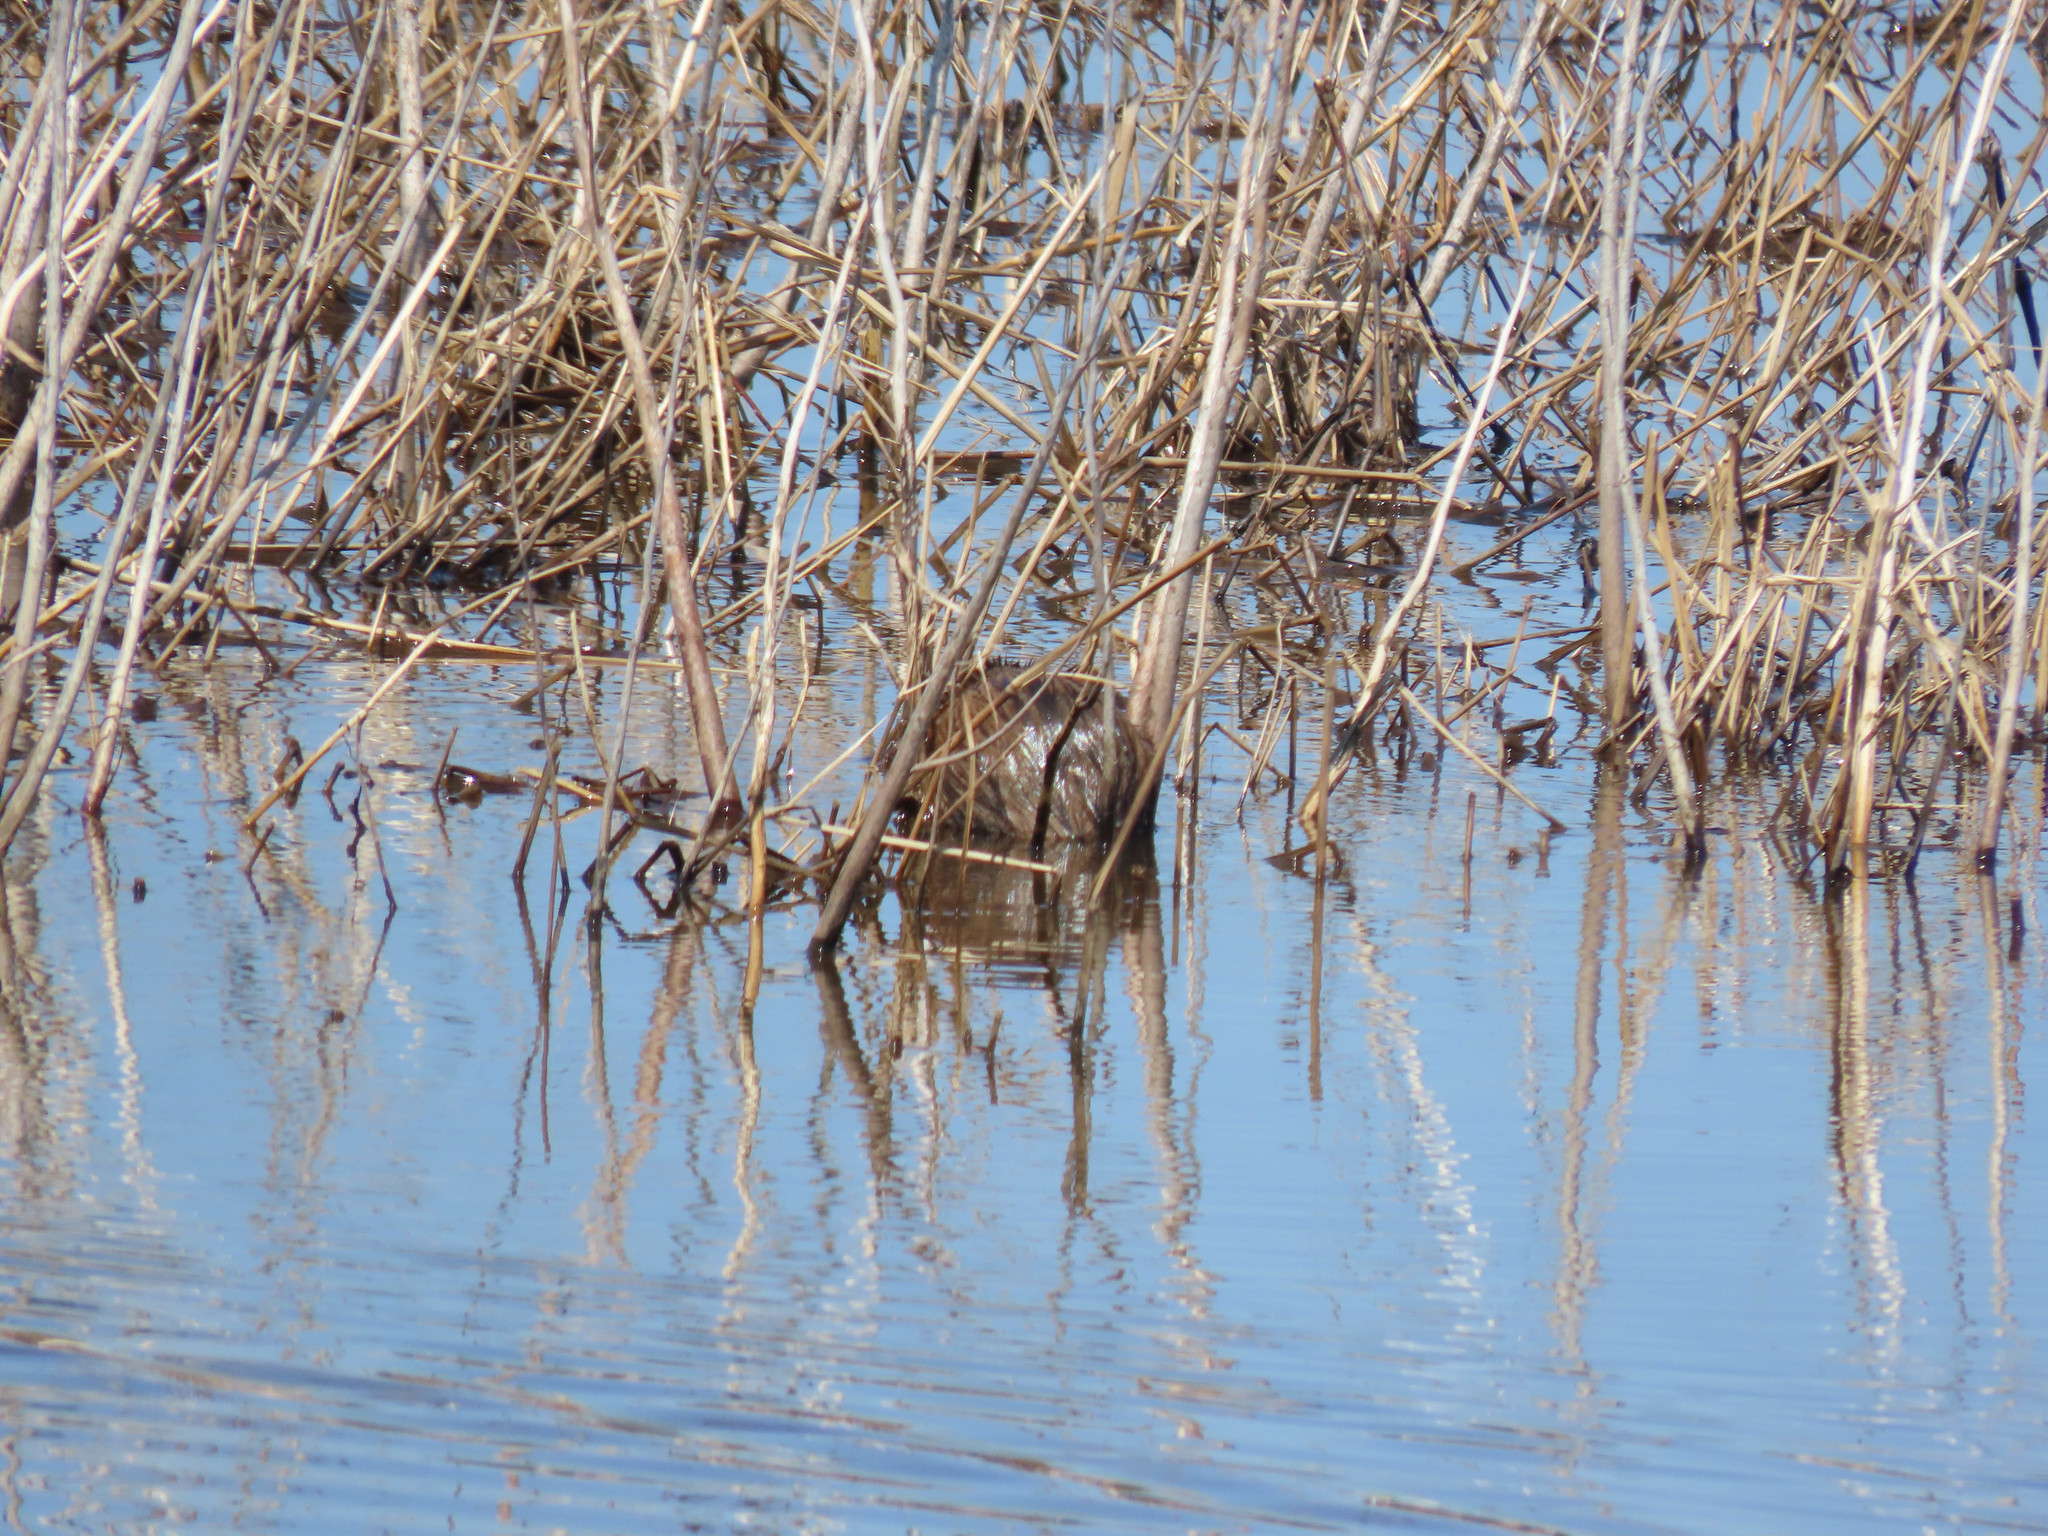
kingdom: Animalia
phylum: Chordata
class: Mammalia
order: Rodentia
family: Cricetidae
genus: Ondatra
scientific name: Ondatra zibethicus
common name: Muskrat
